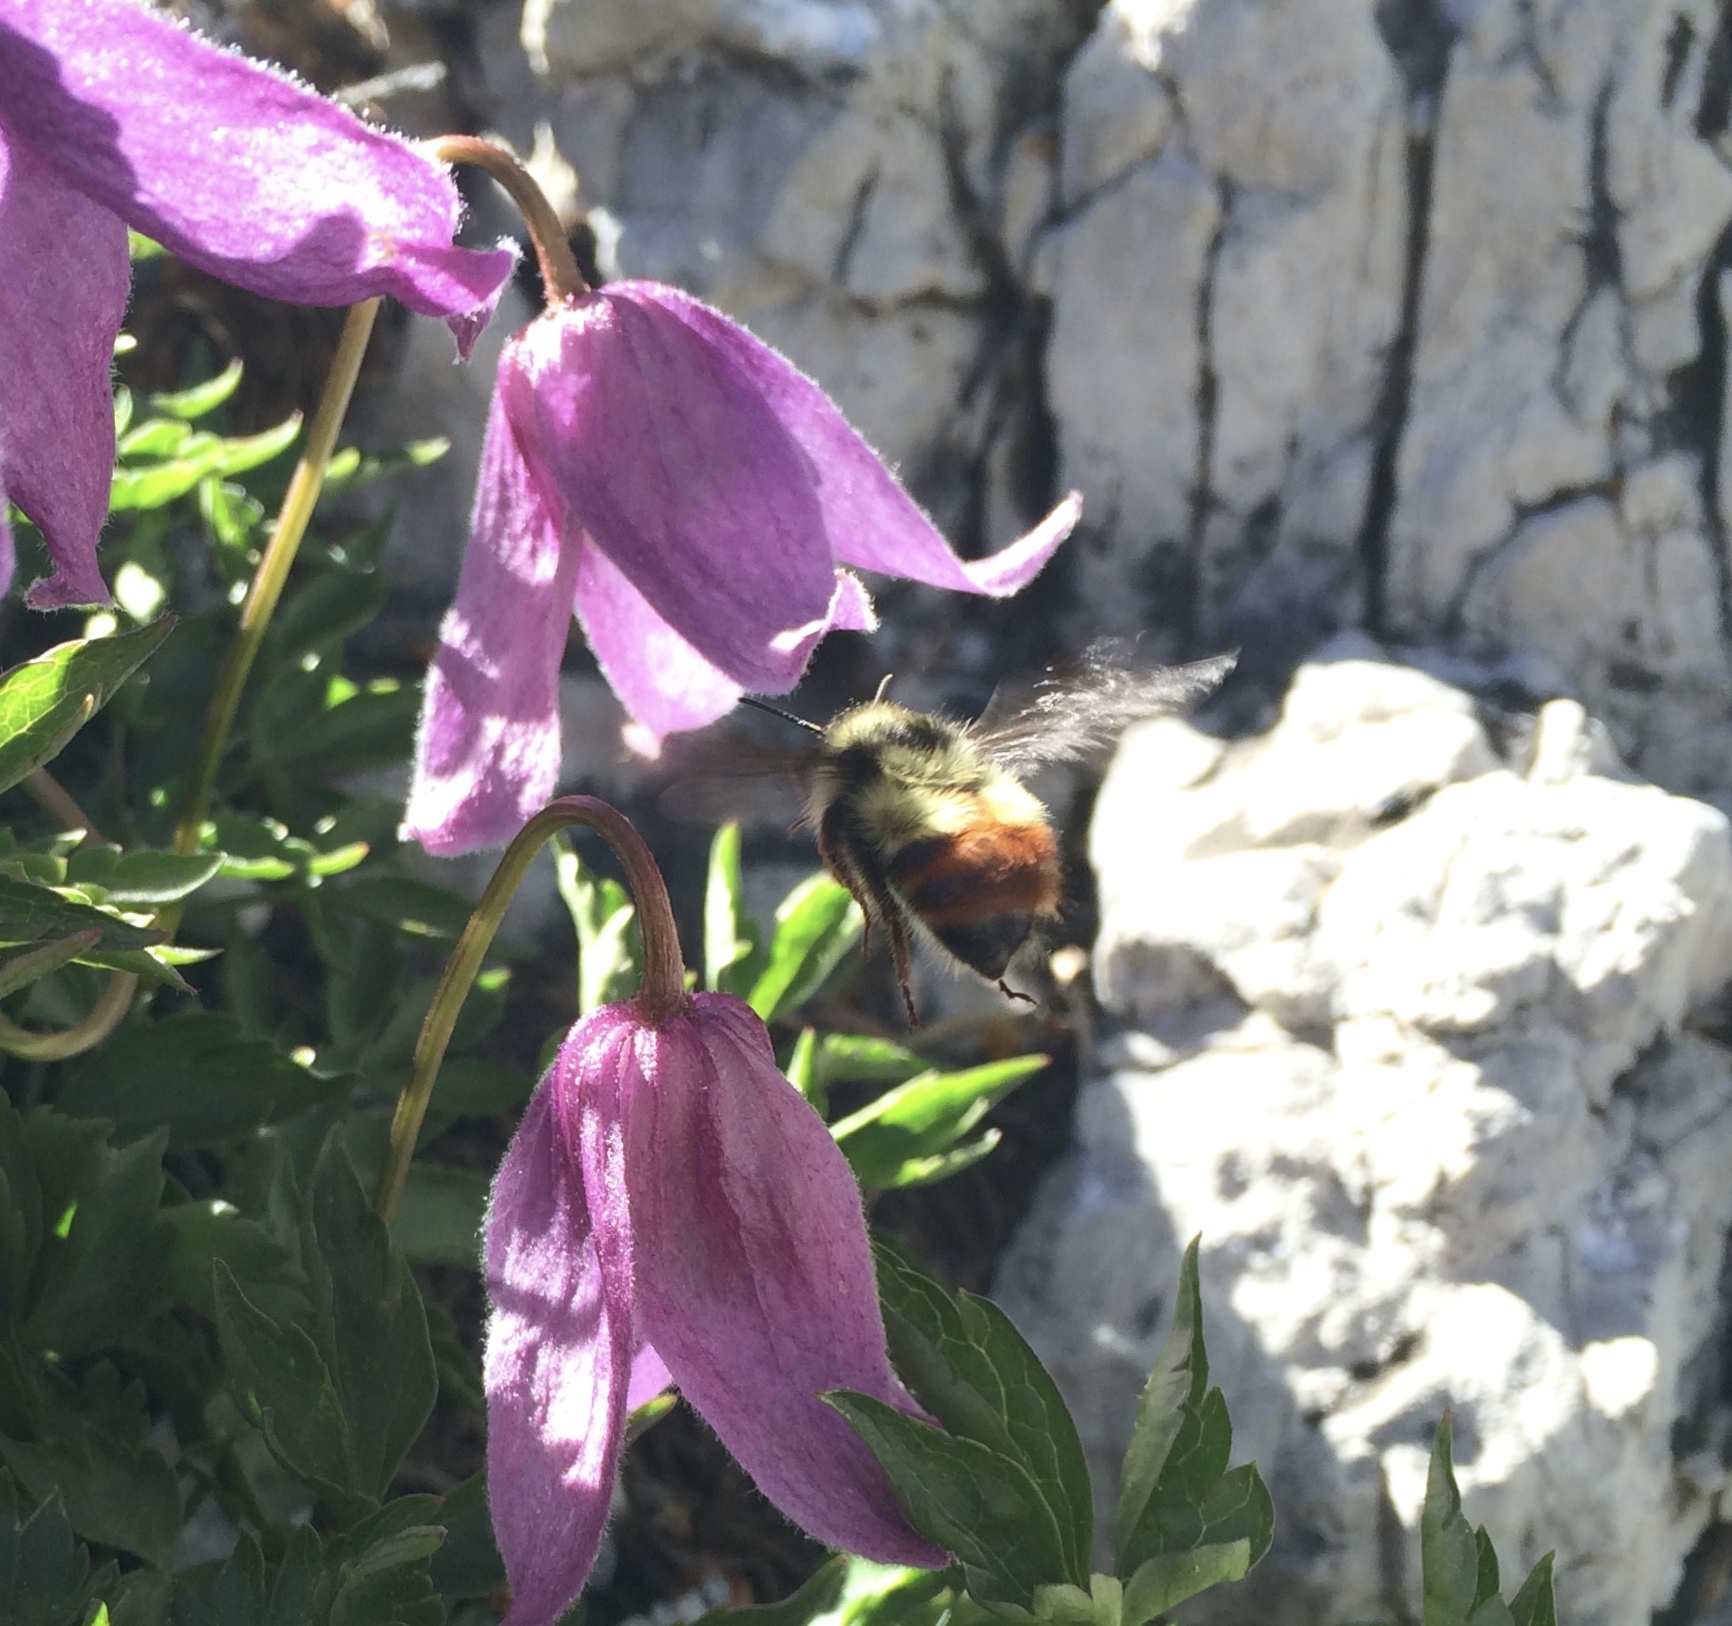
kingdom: Animalia
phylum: Arthropoda
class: Insecta
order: Hymenoptera
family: Apidae
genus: Pyrobombus
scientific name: Pyrobombus
